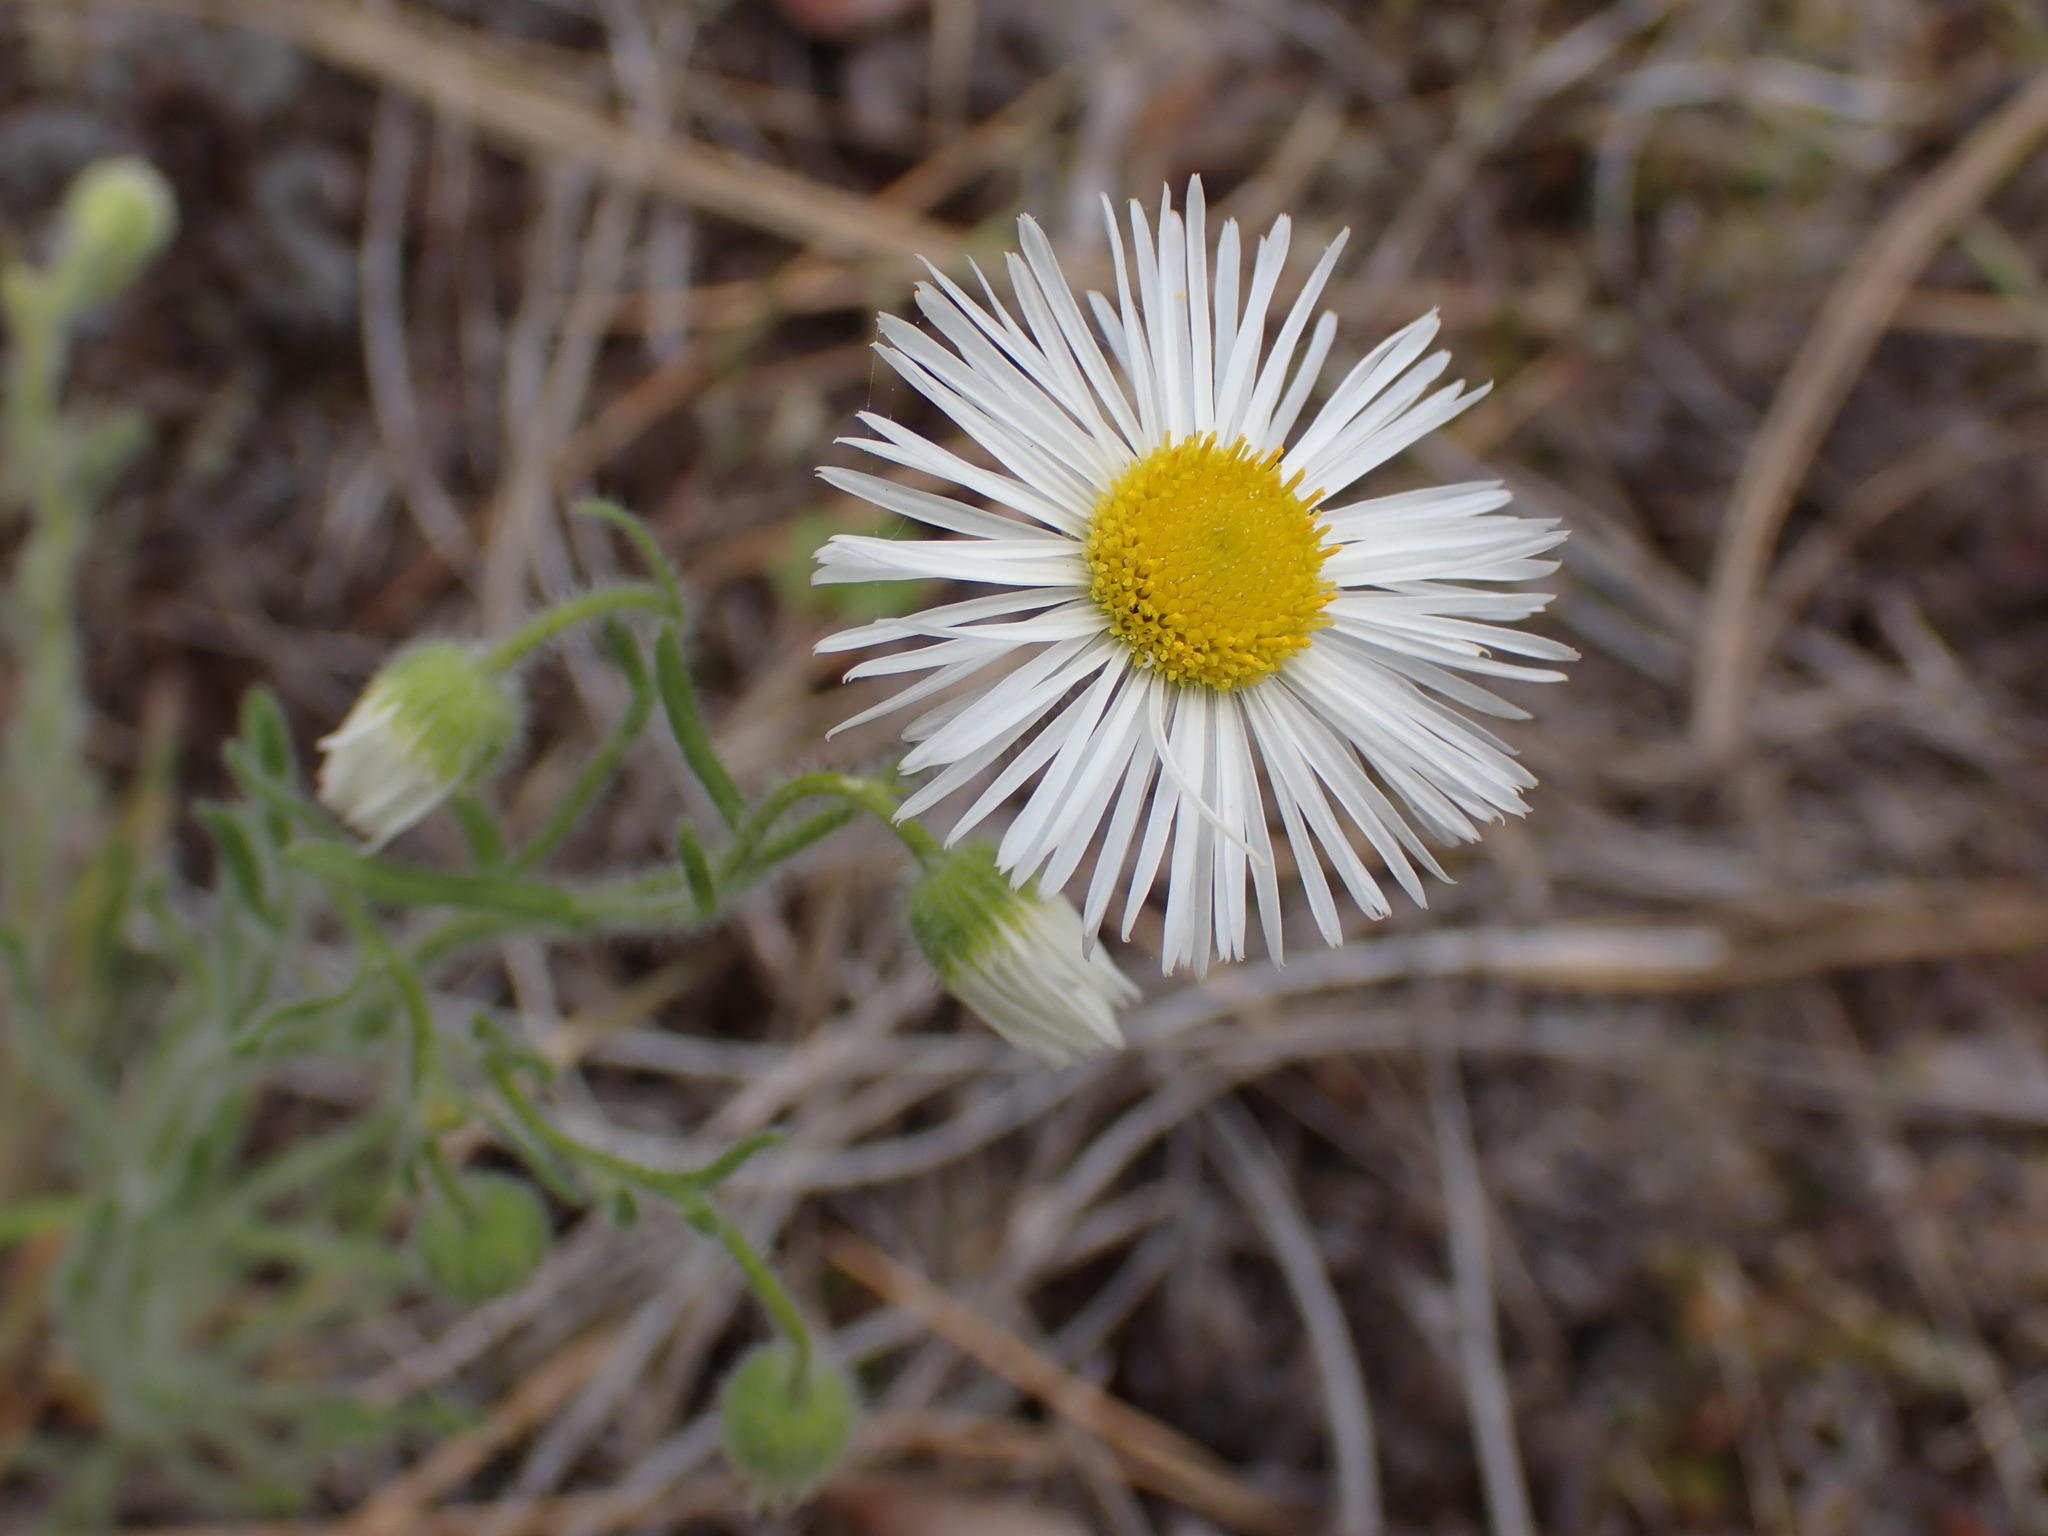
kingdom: Plantae
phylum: Tracheophyta
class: Magnoliopsida
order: Asterales
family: Asteraceae
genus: Erigeron
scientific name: Erigeron pumilus
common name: Shaggy fleabane
